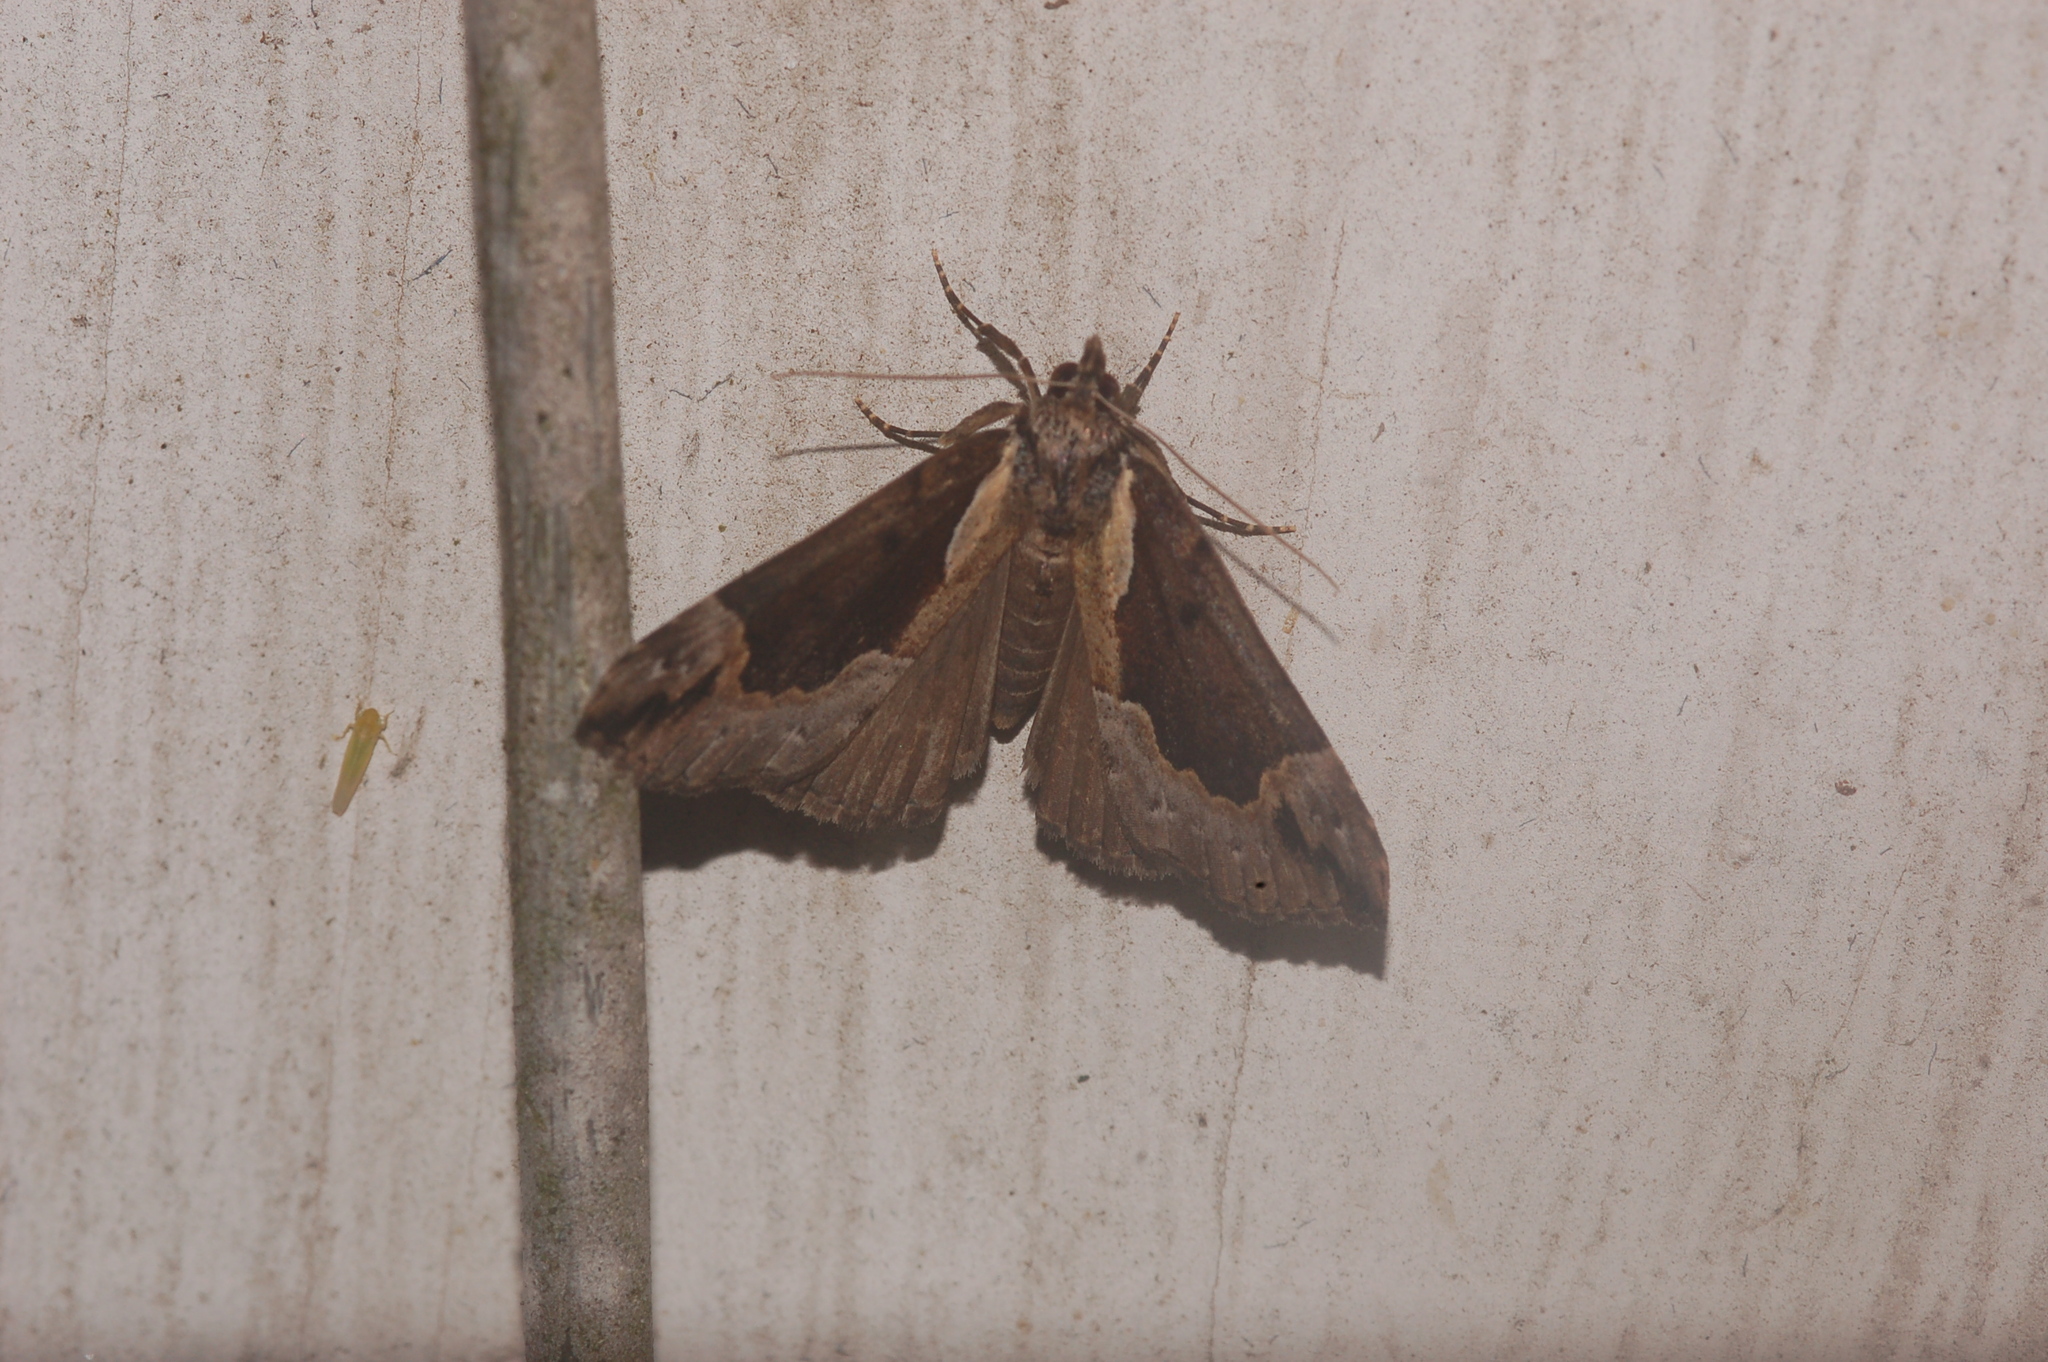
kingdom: Animalia
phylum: Arthropoda
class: Insecta
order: Lepidoptera
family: Erebidae
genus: Hypena
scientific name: Hypena baltimoralis
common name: Baltimore snout
